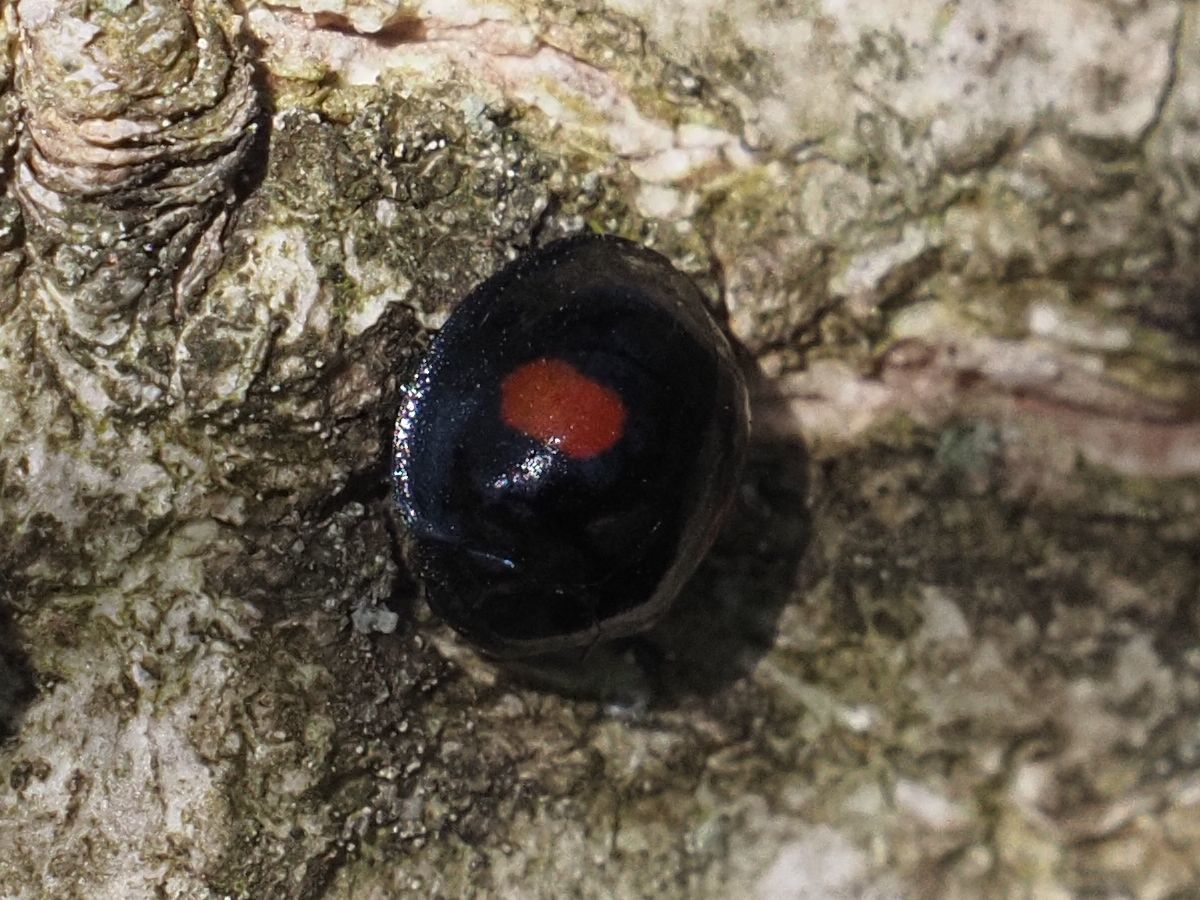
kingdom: Animalia
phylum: Arthropoda
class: Insecta
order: Coleoptera
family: Coccinellidae
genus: Chilocorus
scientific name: Chilocorus renipustulatus
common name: Kidney-spot ladybird
